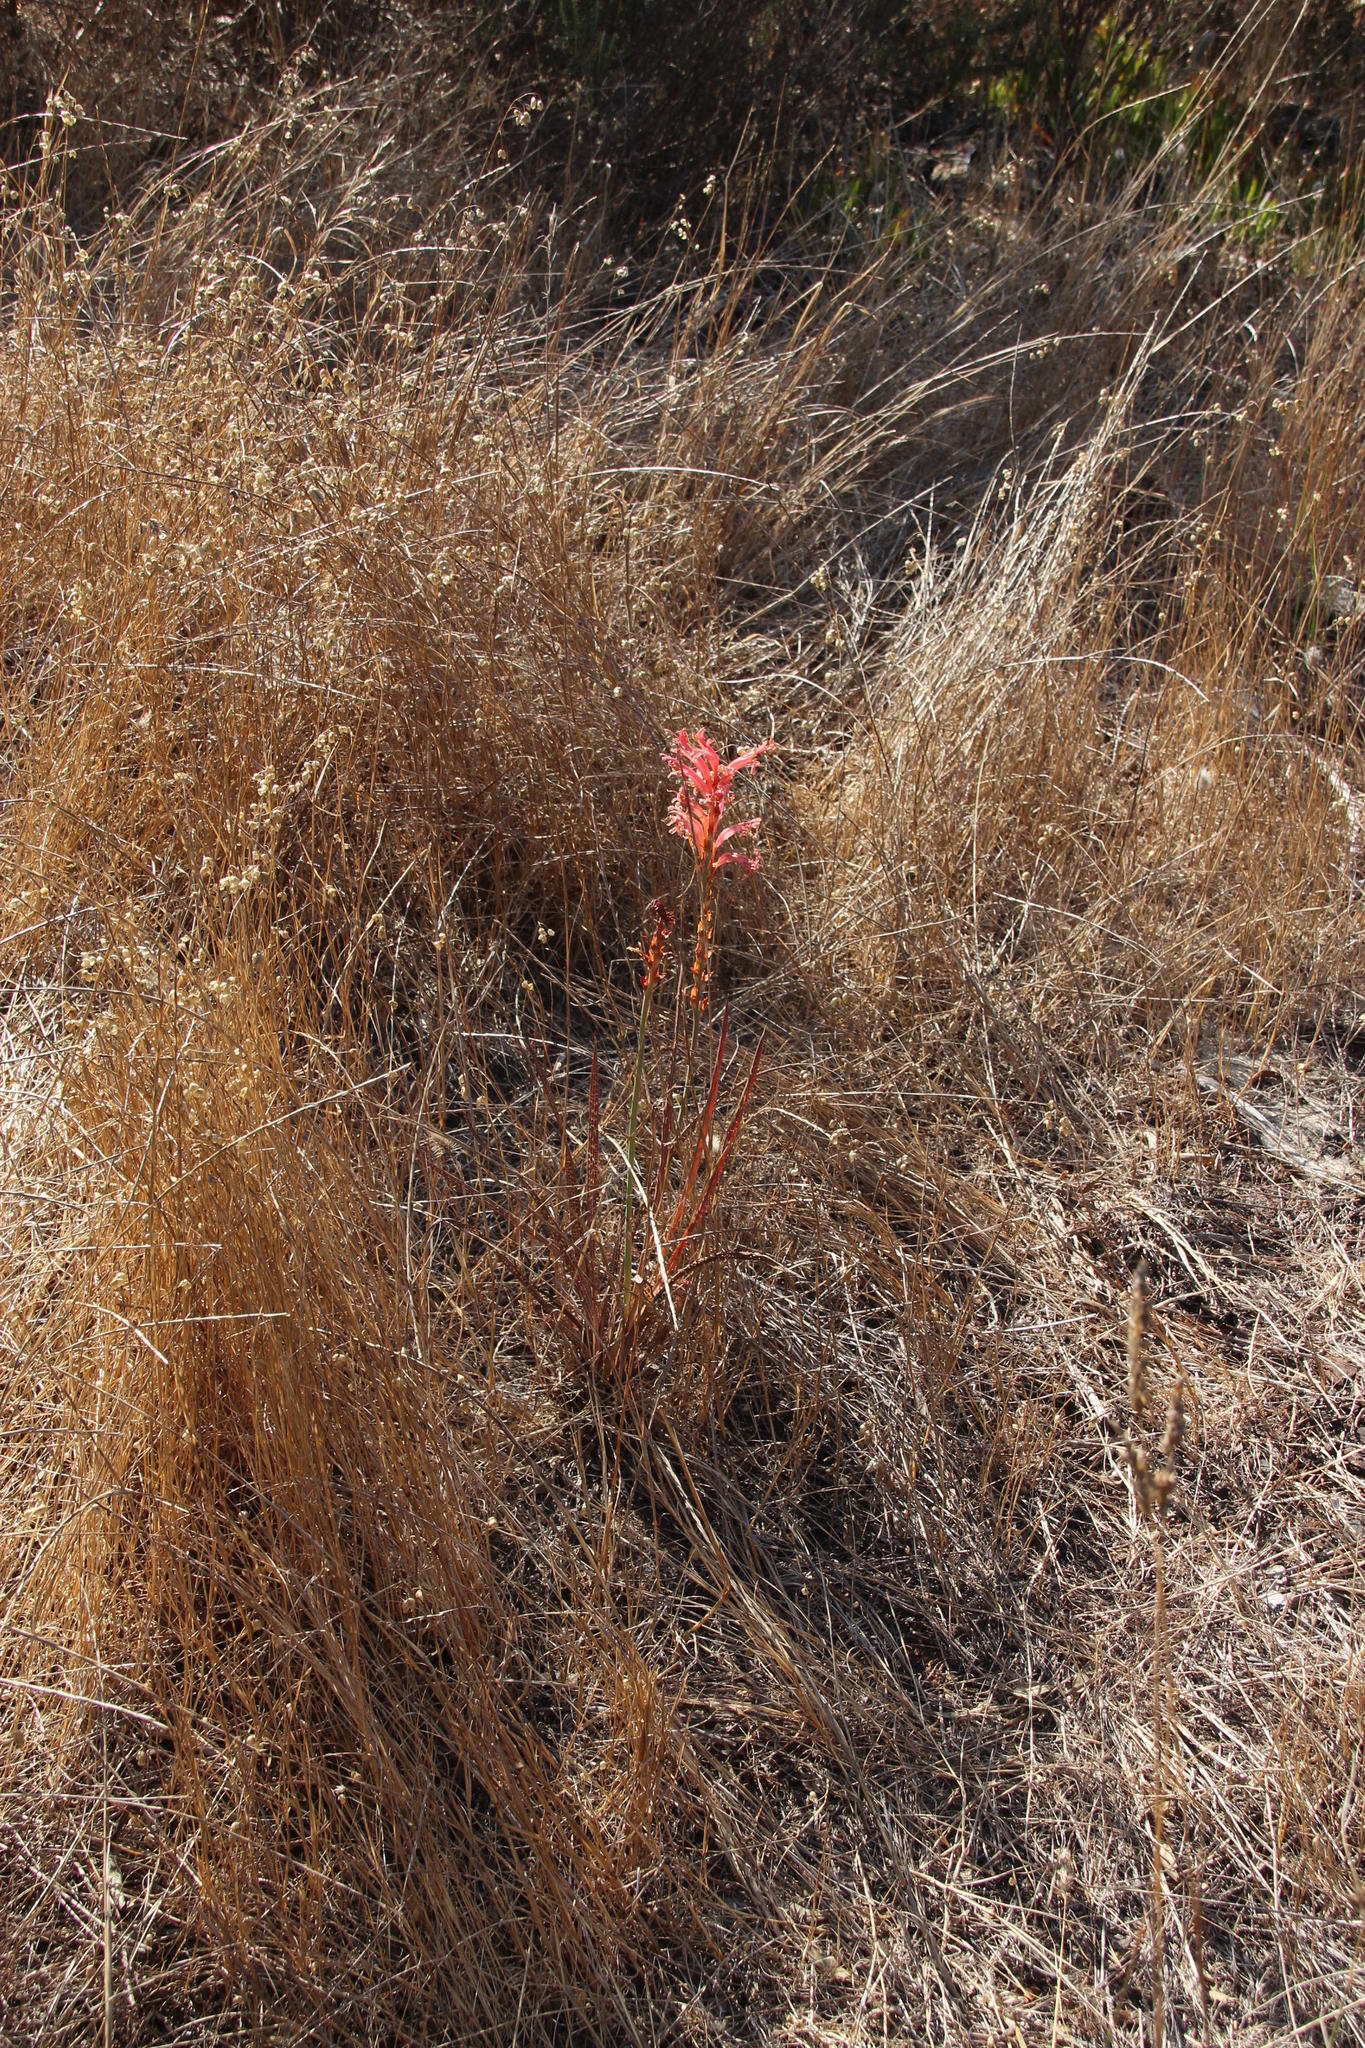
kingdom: Plantae
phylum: Tracheophyta
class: Liliopsida
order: Asparagales
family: Iridaceae
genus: Tritoniopsis
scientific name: Tritoniopsis antholyza
